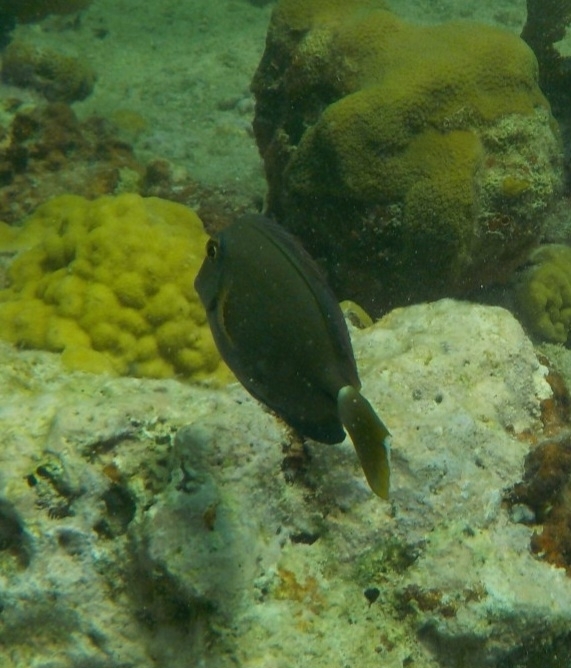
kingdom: Animalia
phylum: Chordata
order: Perciformes
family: Acanthuridae
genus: Acanthurus
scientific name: Acanthurus bahianus
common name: Ocean surgeon
